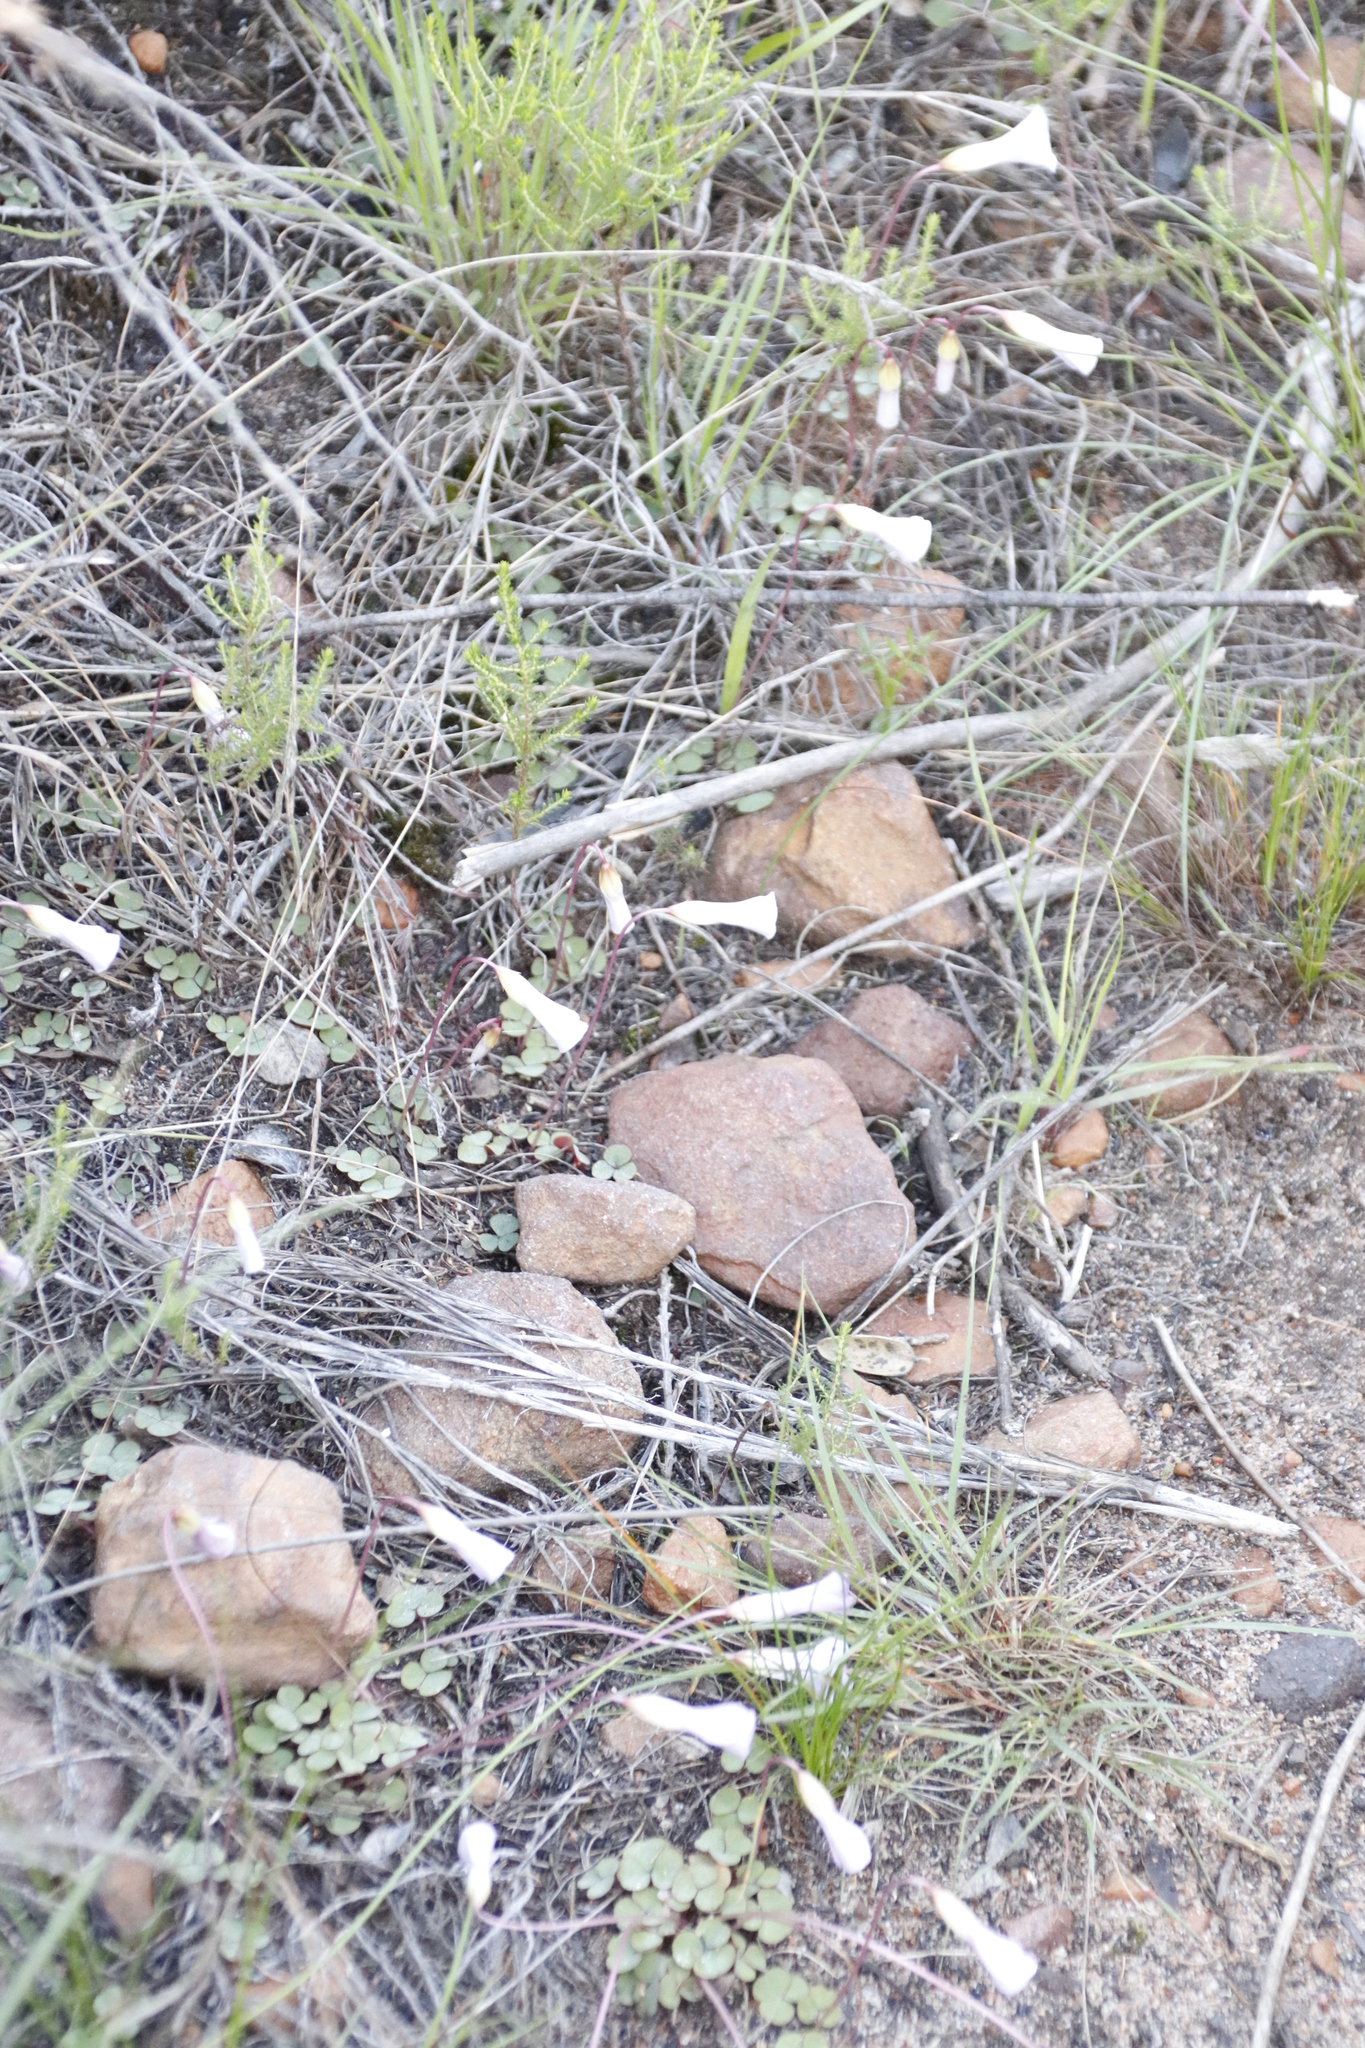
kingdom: Plantae
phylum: Tracheophyta
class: Magnoliopsida
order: Oxalidales
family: Oxalidaceae
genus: Oxalis
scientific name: Oxalis commutata
